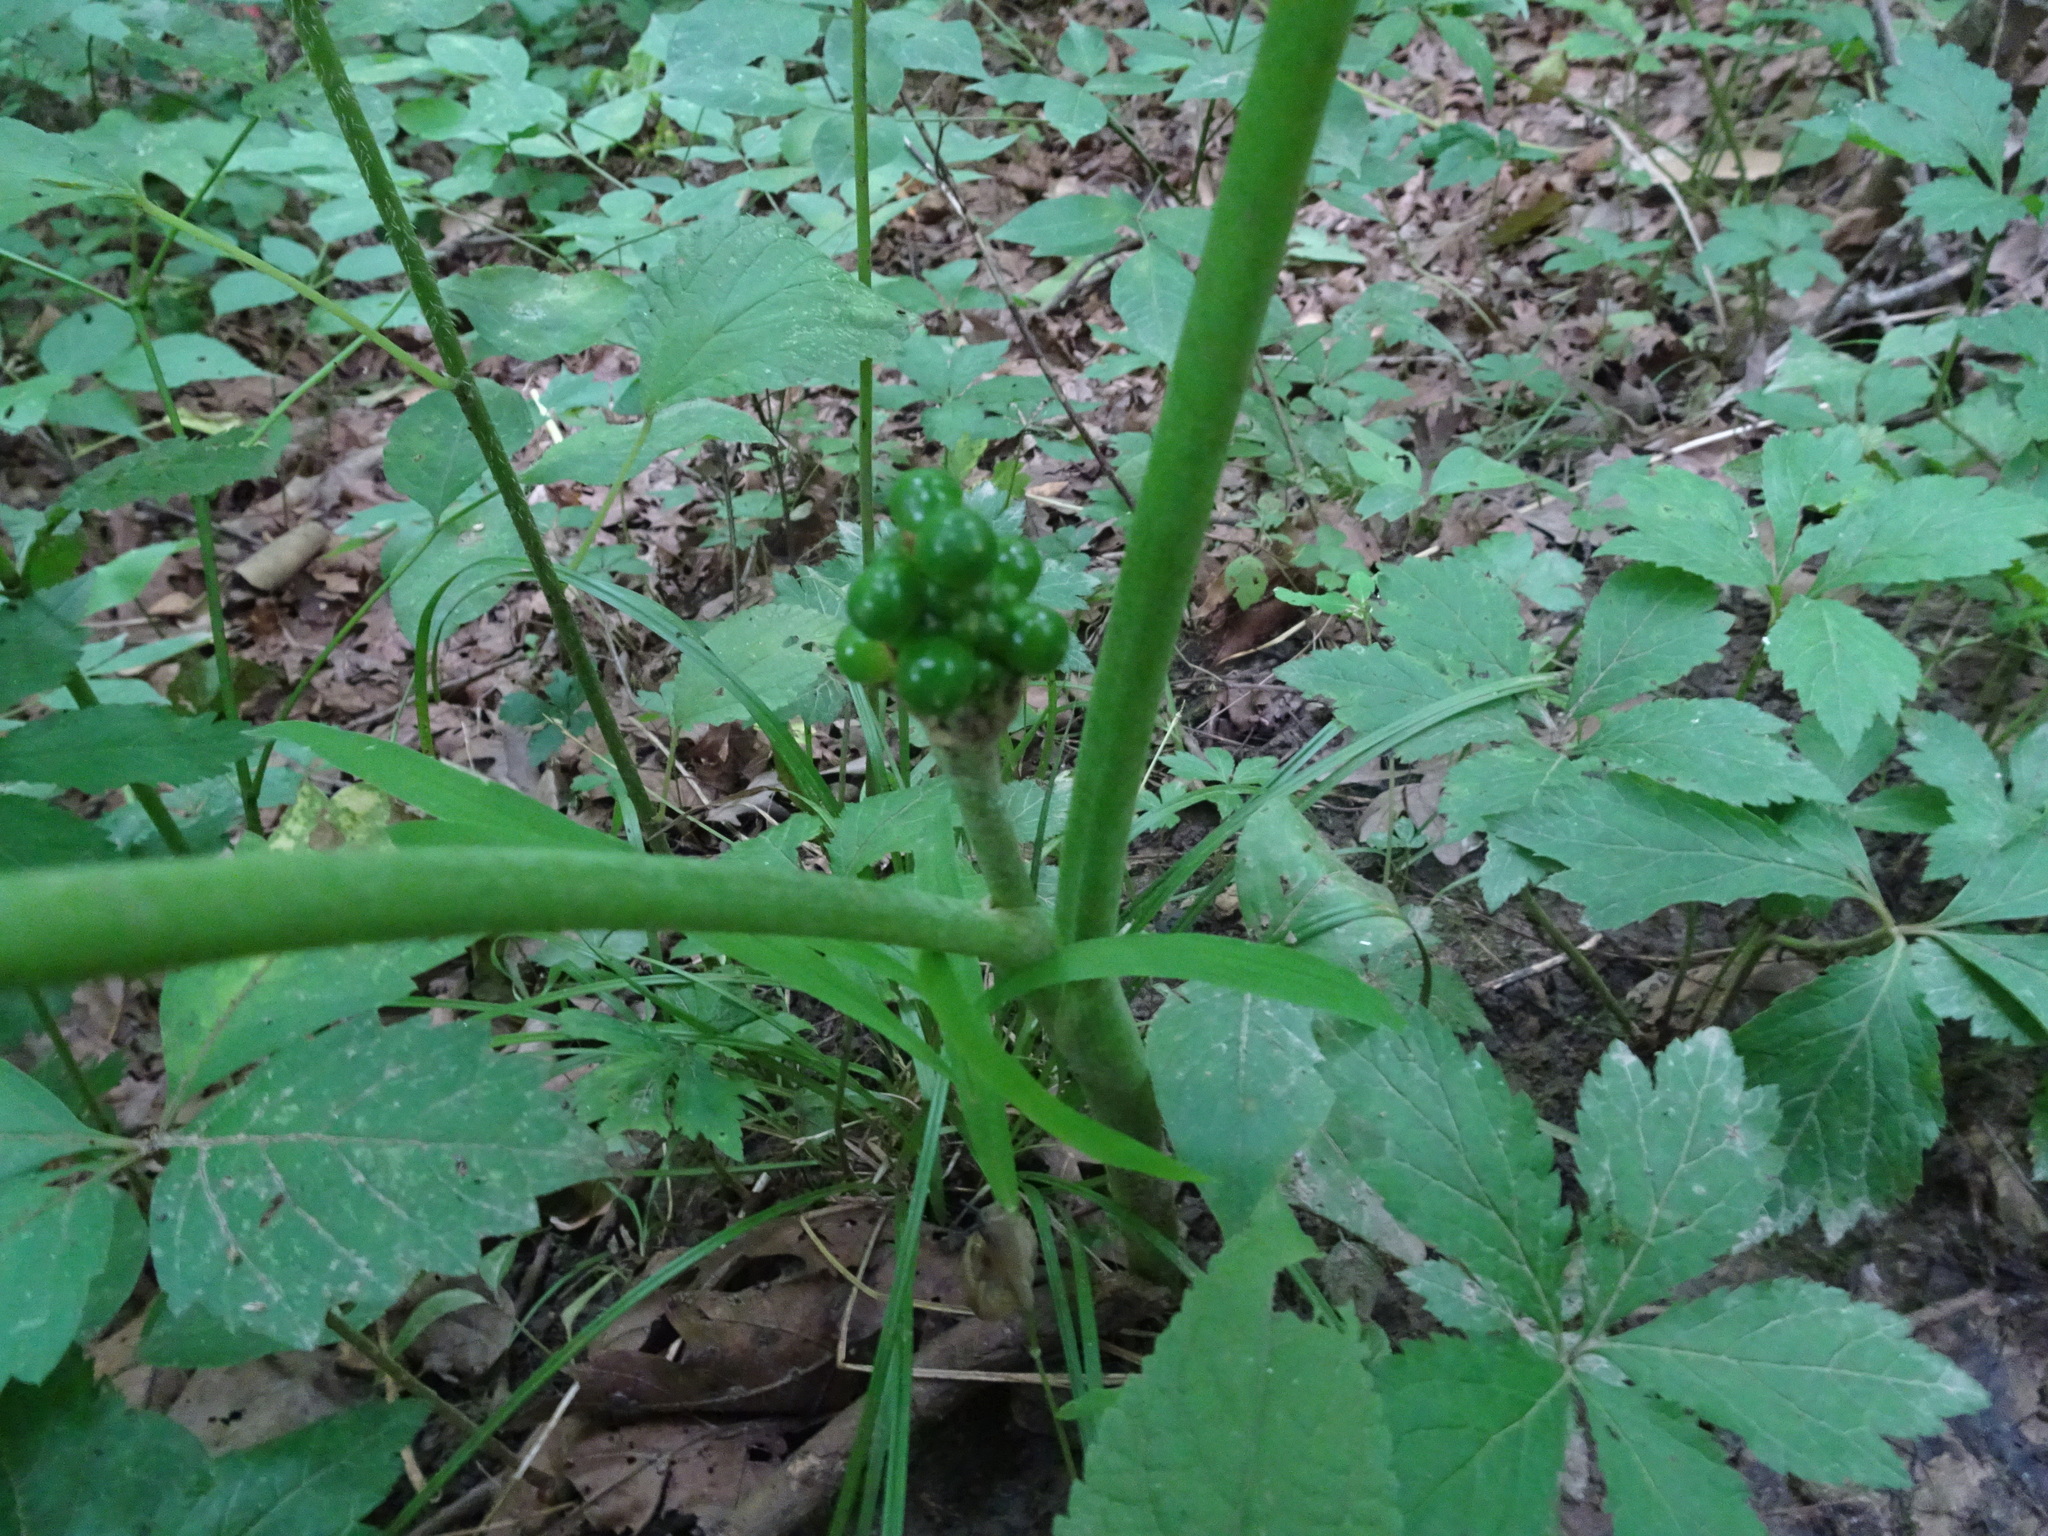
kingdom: Plantae
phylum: Tracheophyta
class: Liliopsida
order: Alismatales
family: Araceae
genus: Arisaema
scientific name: Arisaema triphyllum
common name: Jack-in-the-pulpit
